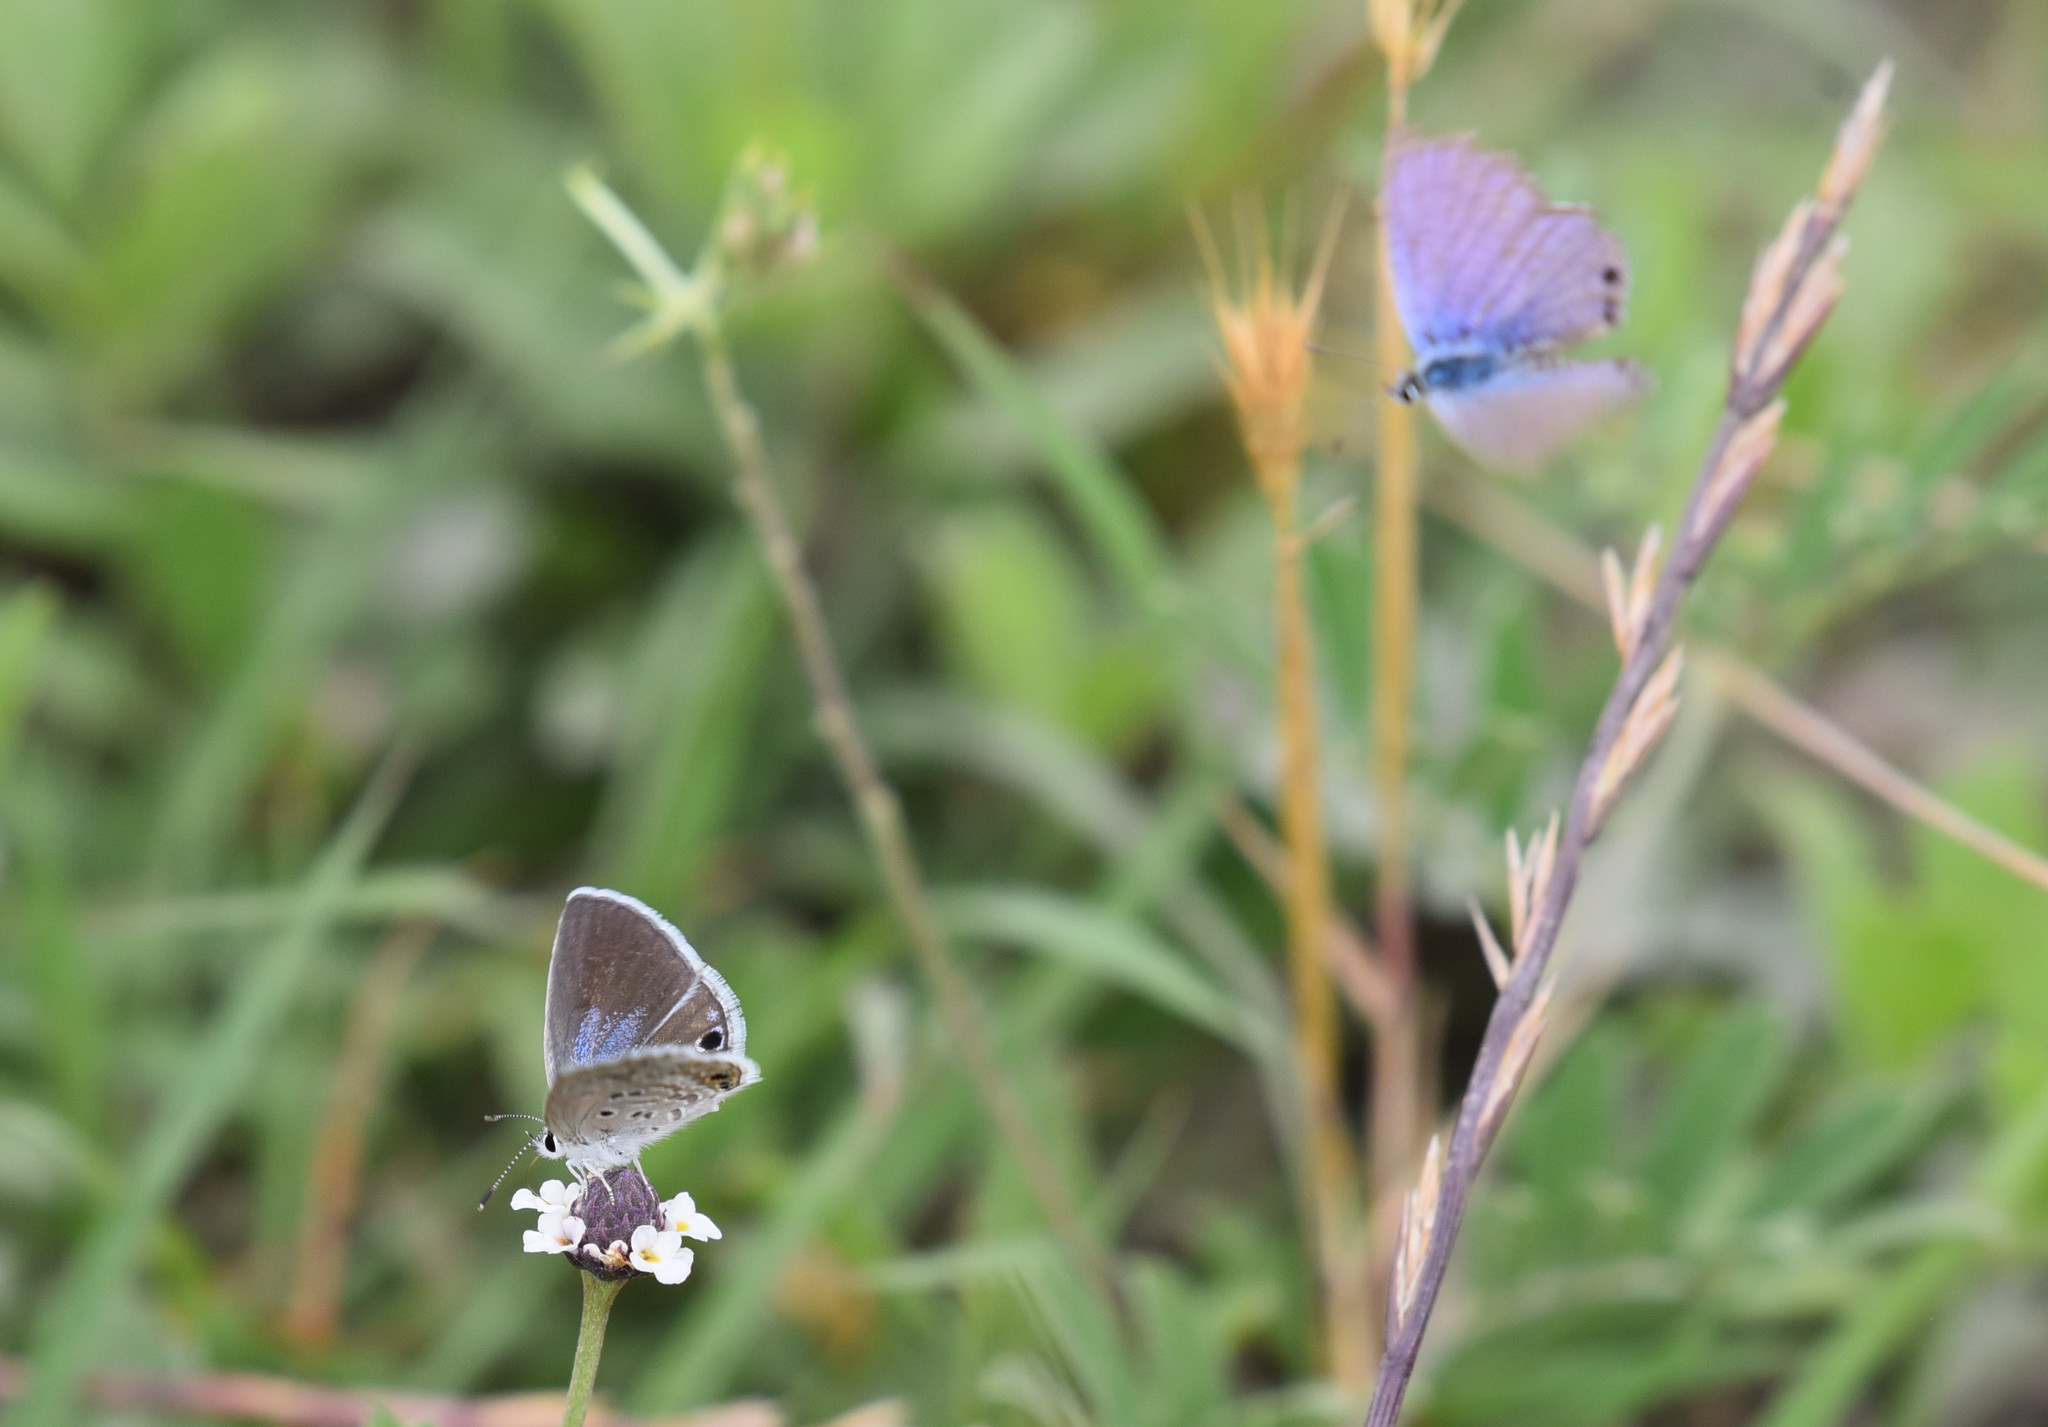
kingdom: Animalia
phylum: Arthropoda
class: Insecta
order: Lepidoptera
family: Lycaenidae
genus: Echinargus
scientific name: Echinargus isola
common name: Reakirt's blue
